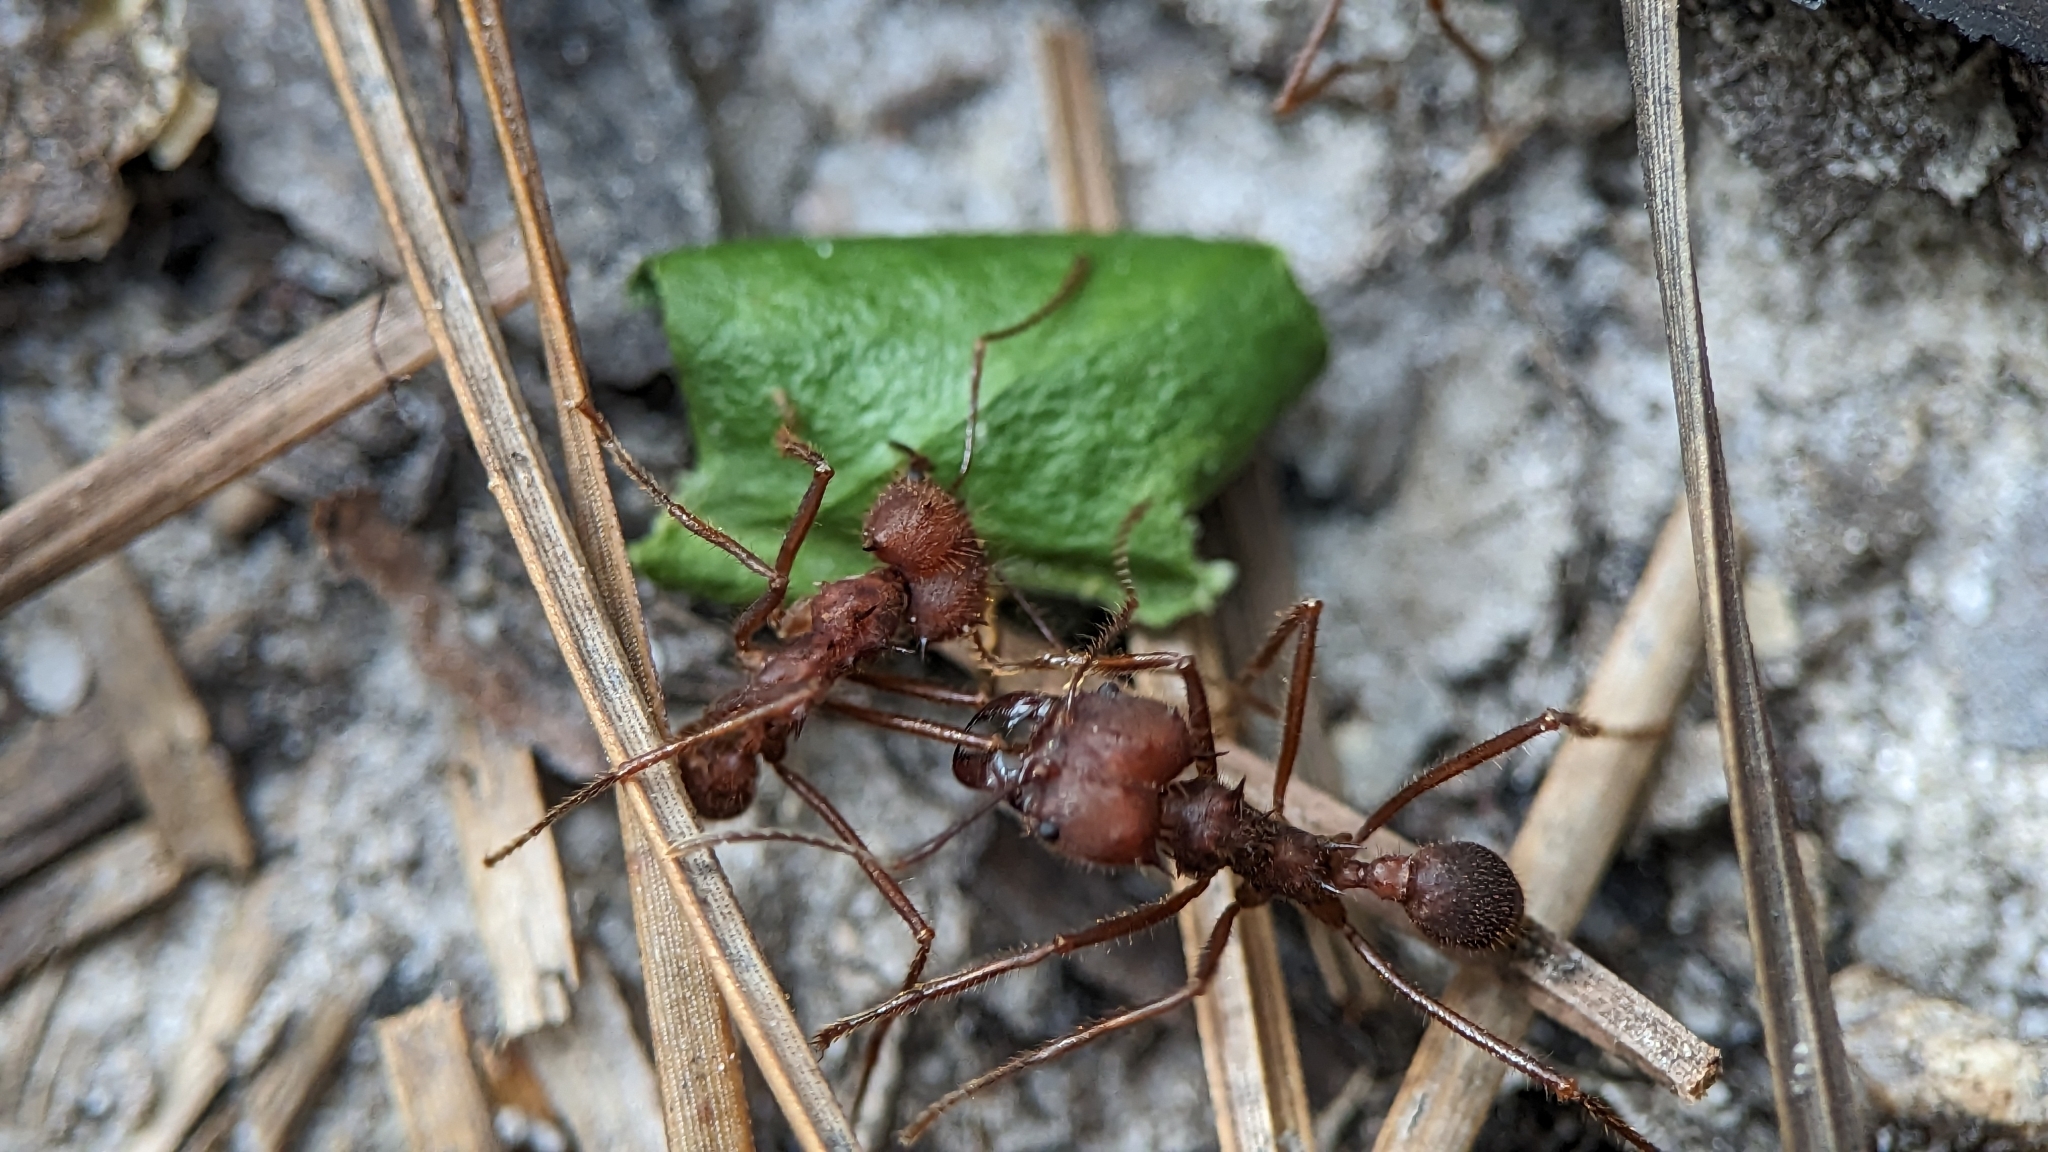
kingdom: Animalia
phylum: Arthropoda
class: Insecta
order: Hymenoptera
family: Formicidae
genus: Atta
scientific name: Atta texana
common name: Texas leafcutting ant
